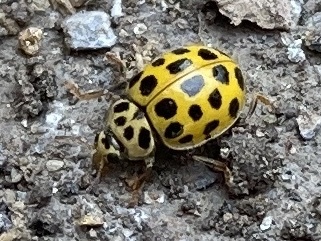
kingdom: Animalia
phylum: Arthropoda
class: Insecta
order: Coleoptera
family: Coccinellidae
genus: Psyllobora
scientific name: Psyllobora vigintiduopunctata
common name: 22-spot ladybird
